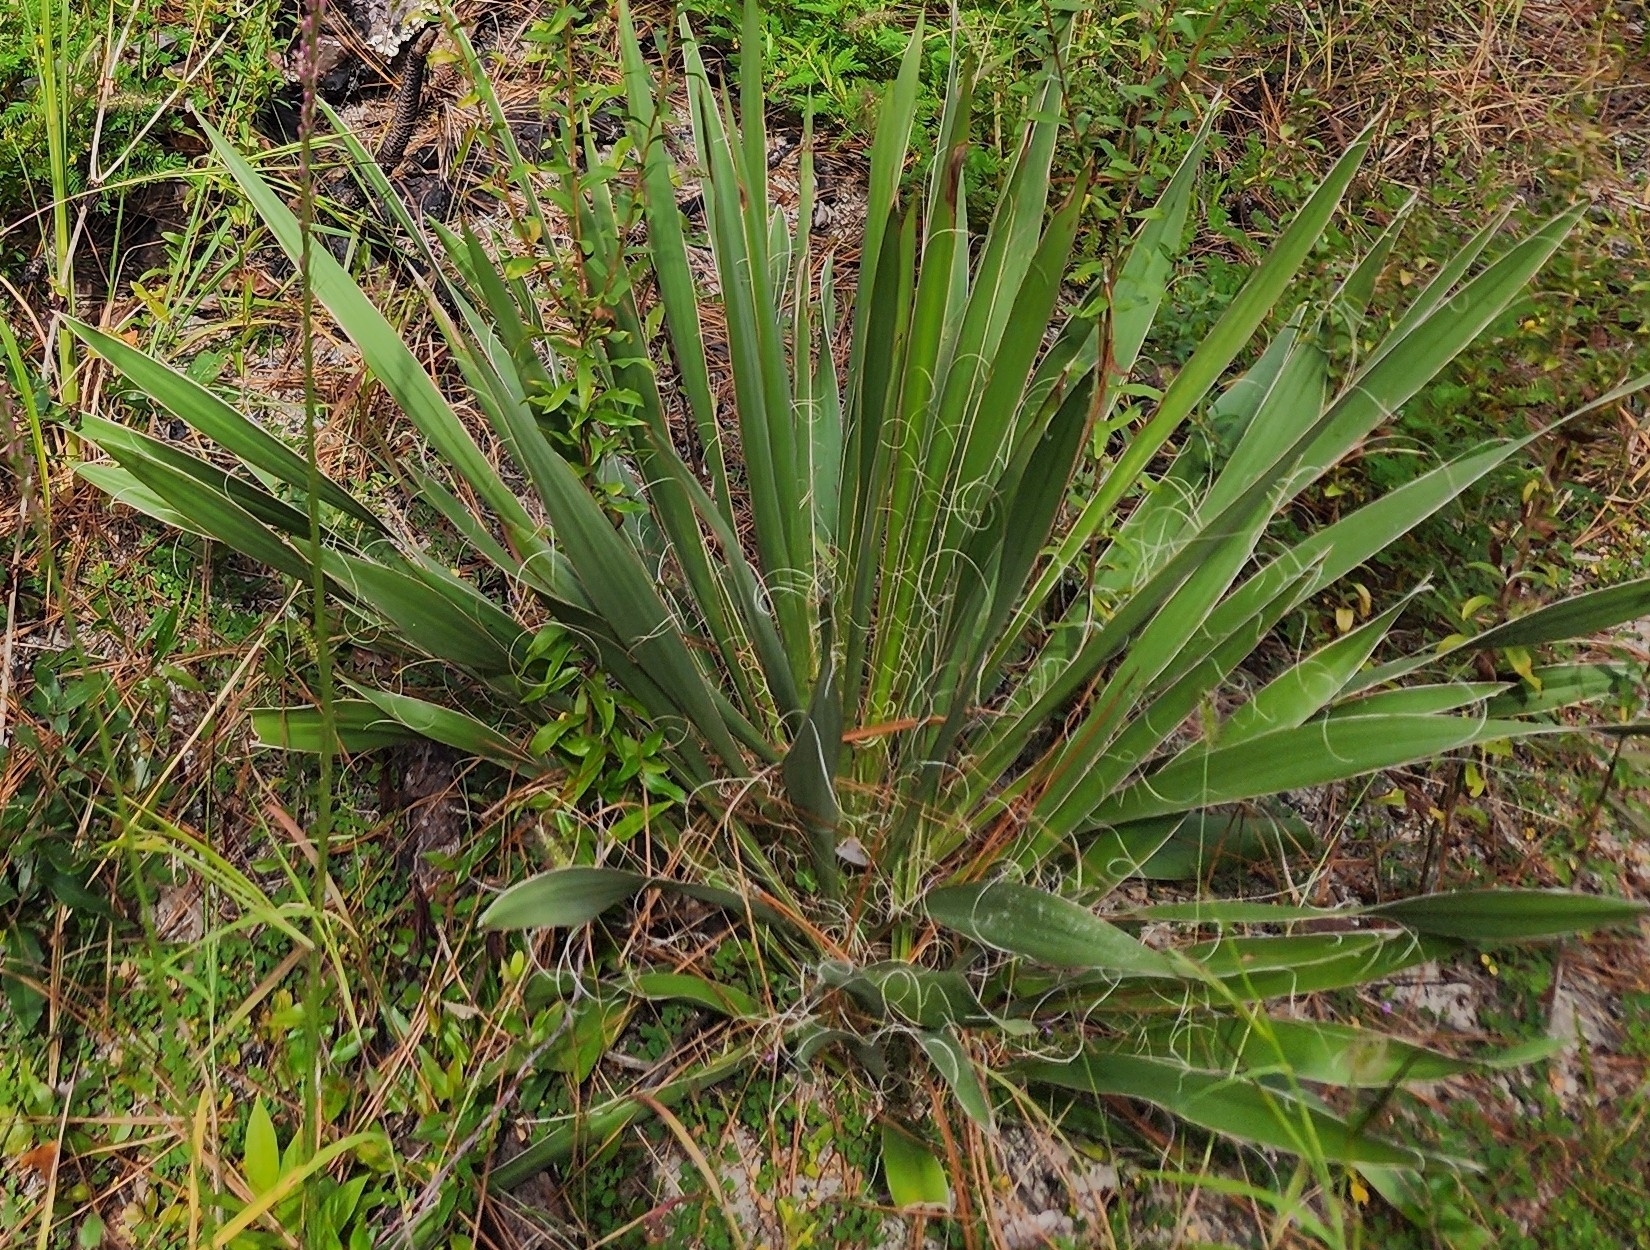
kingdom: Plantae
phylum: Tracheophyta
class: Liliopsida
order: Asparagales
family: Asparagaceae
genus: Yucca
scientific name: Yucca filamentosa
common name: Adam's-needle
